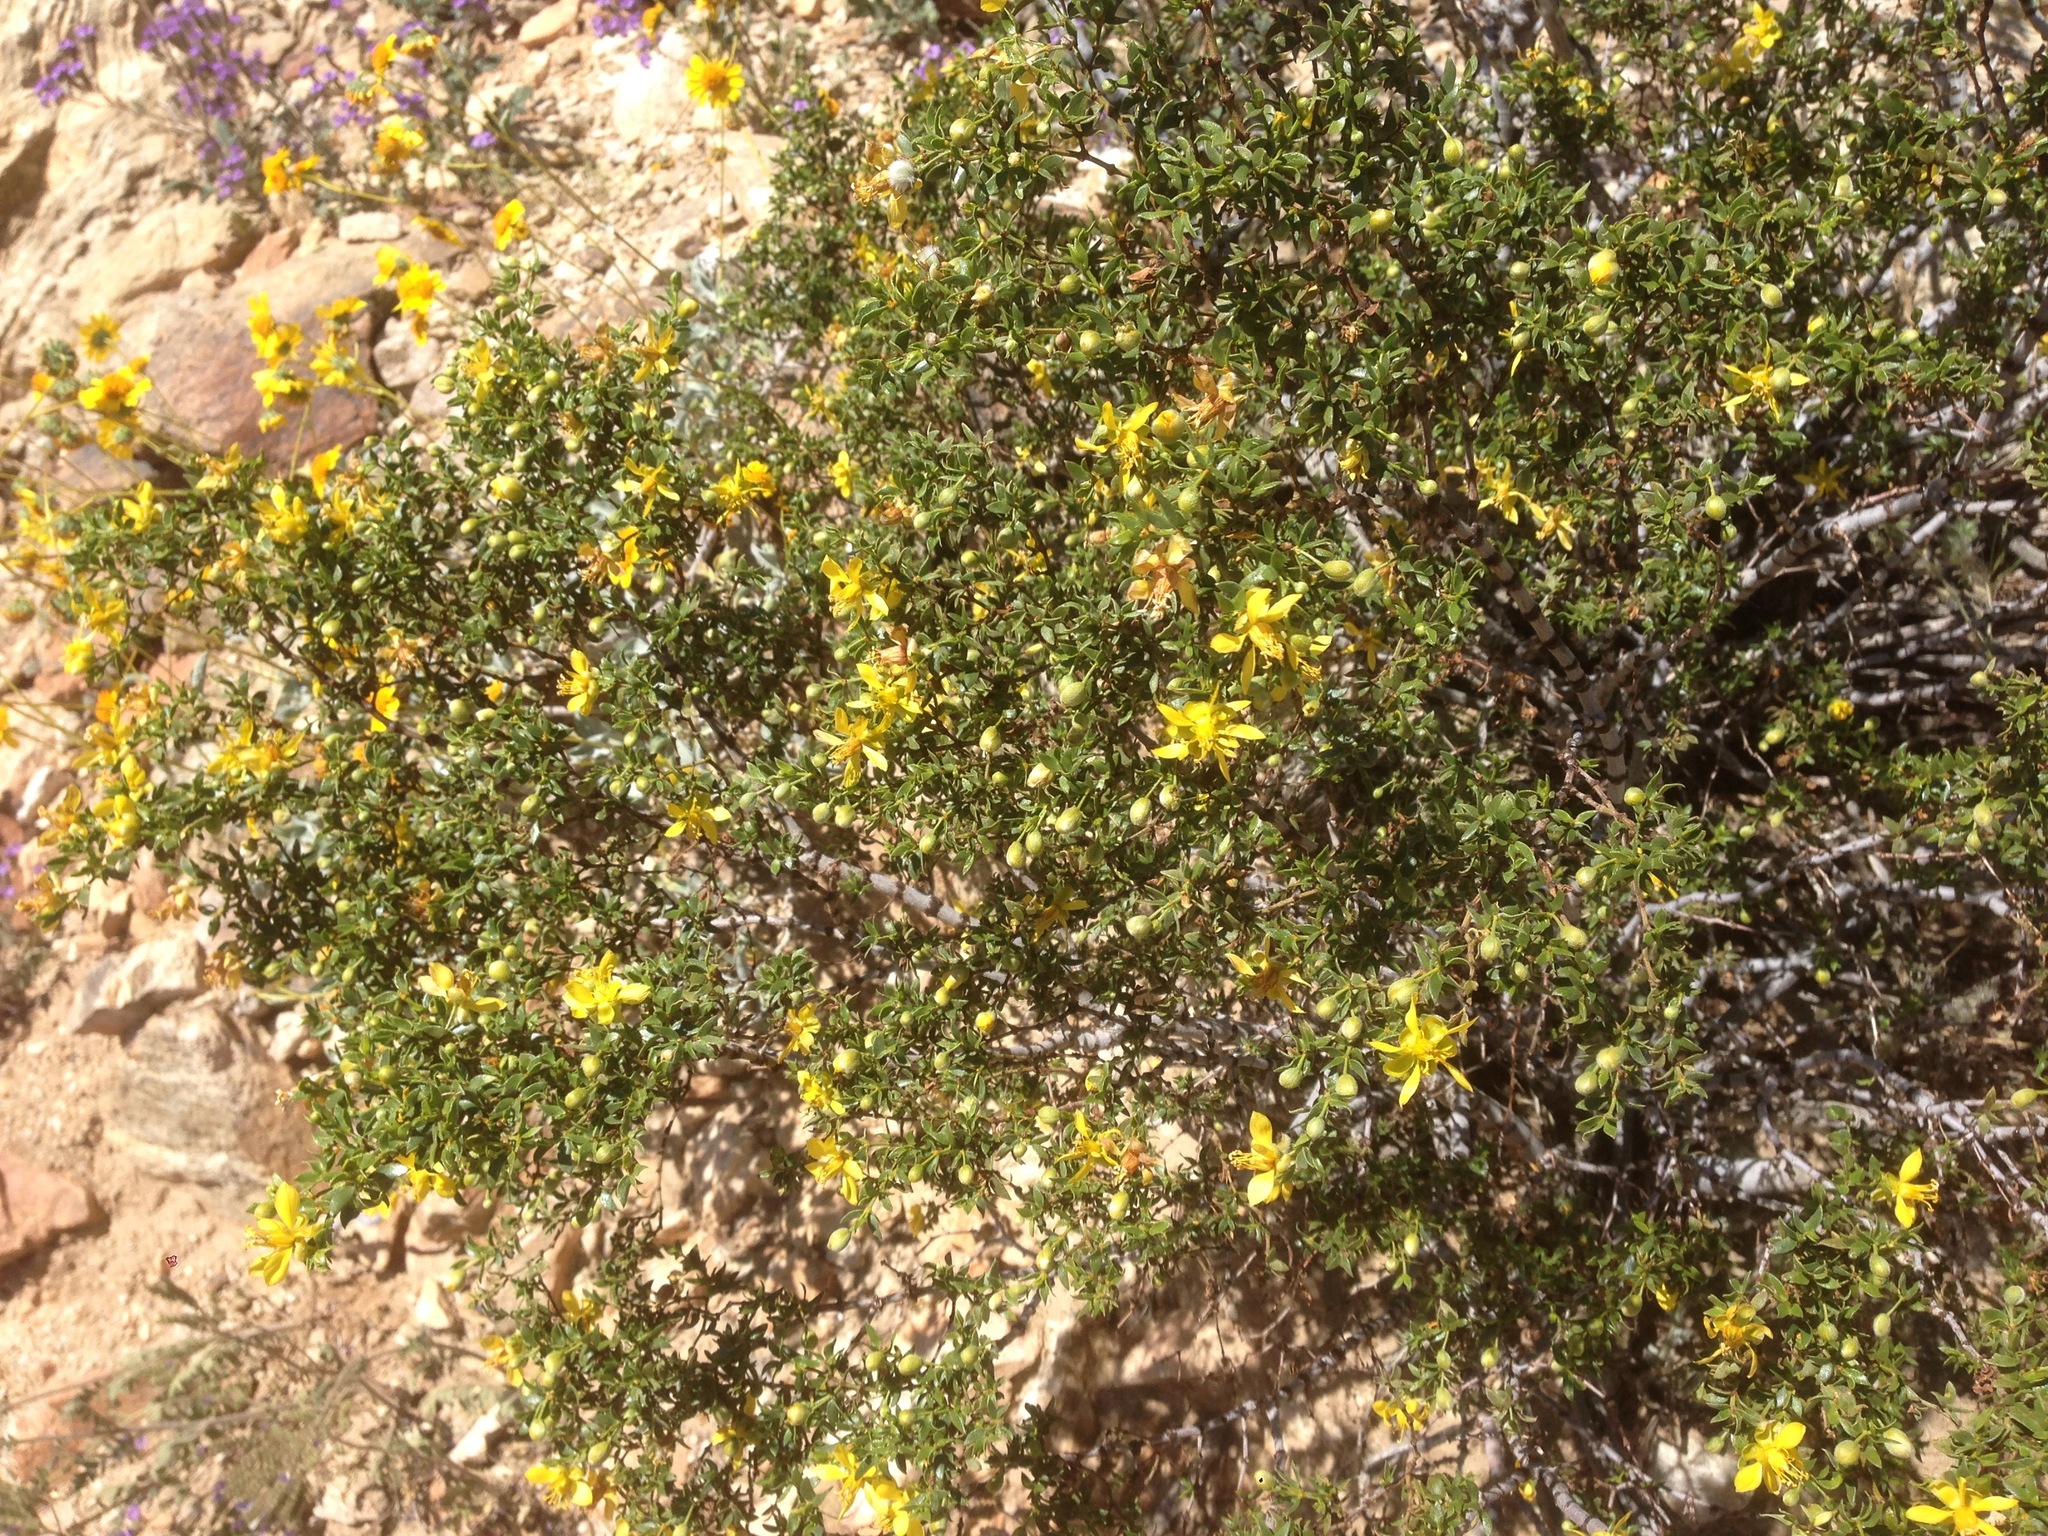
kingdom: Plantae
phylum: Tracheophyta
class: Magnoliopsida
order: Zygophyllales
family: Zygophyllaceae
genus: Larrea
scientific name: Larrea tridentata
